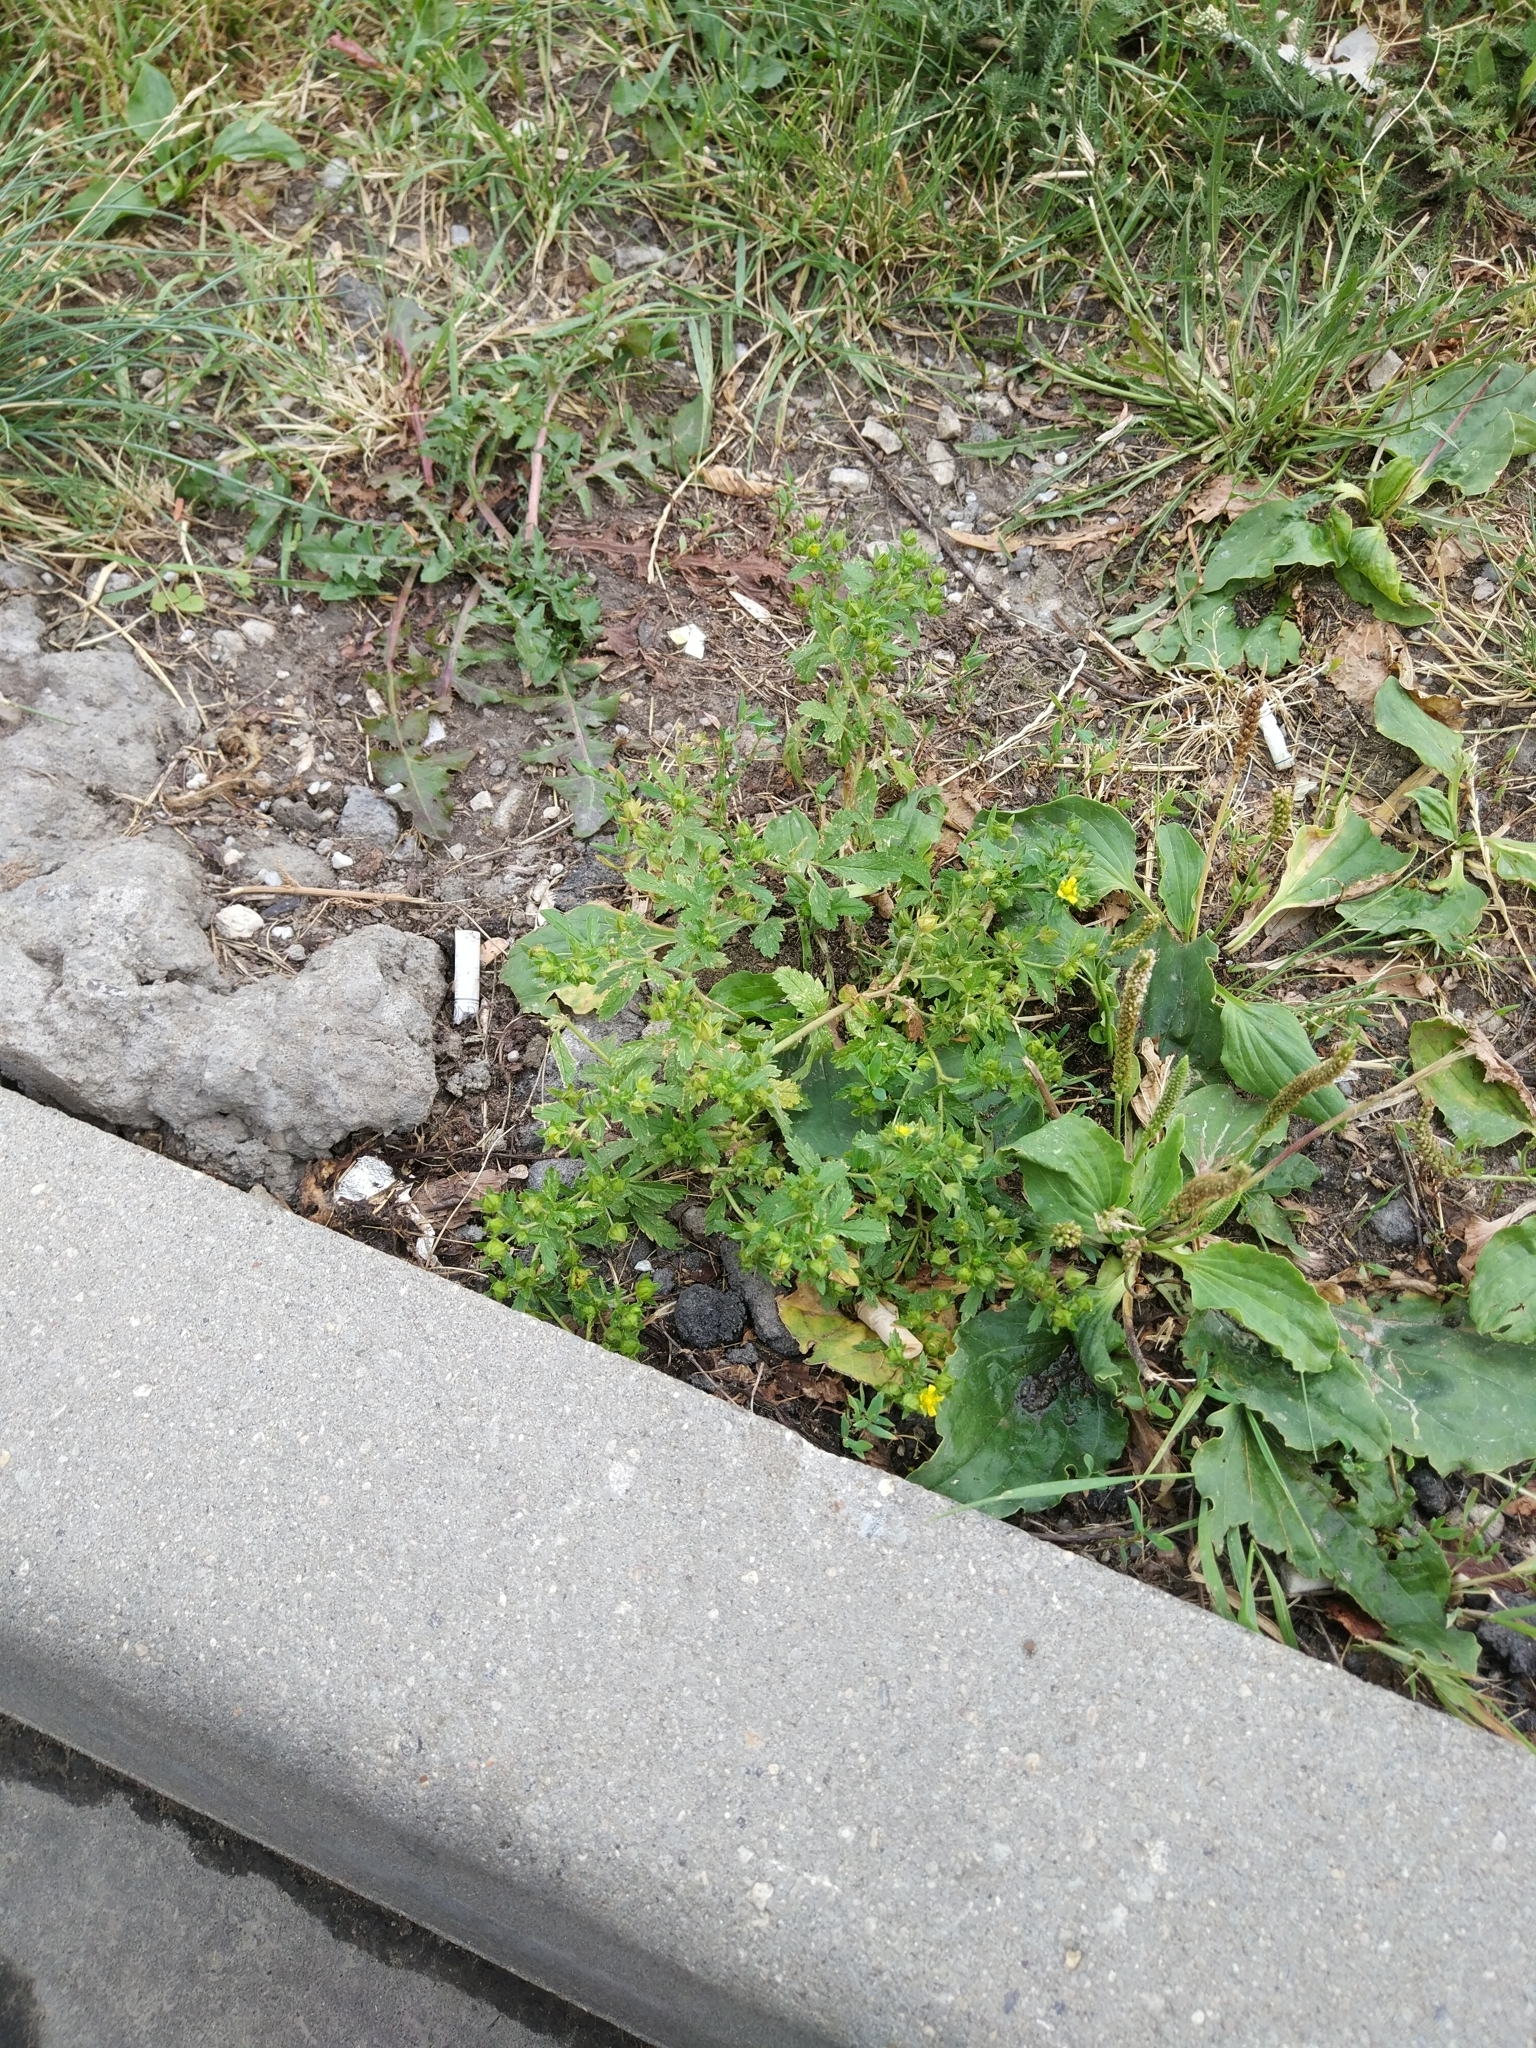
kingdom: Plantae
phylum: Tracheophyta
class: Magnoliopsida
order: Rosales
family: Rosaceae
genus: Potentilla
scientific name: Potentilla norvegica
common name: Ternate-leaved cinquefoil
